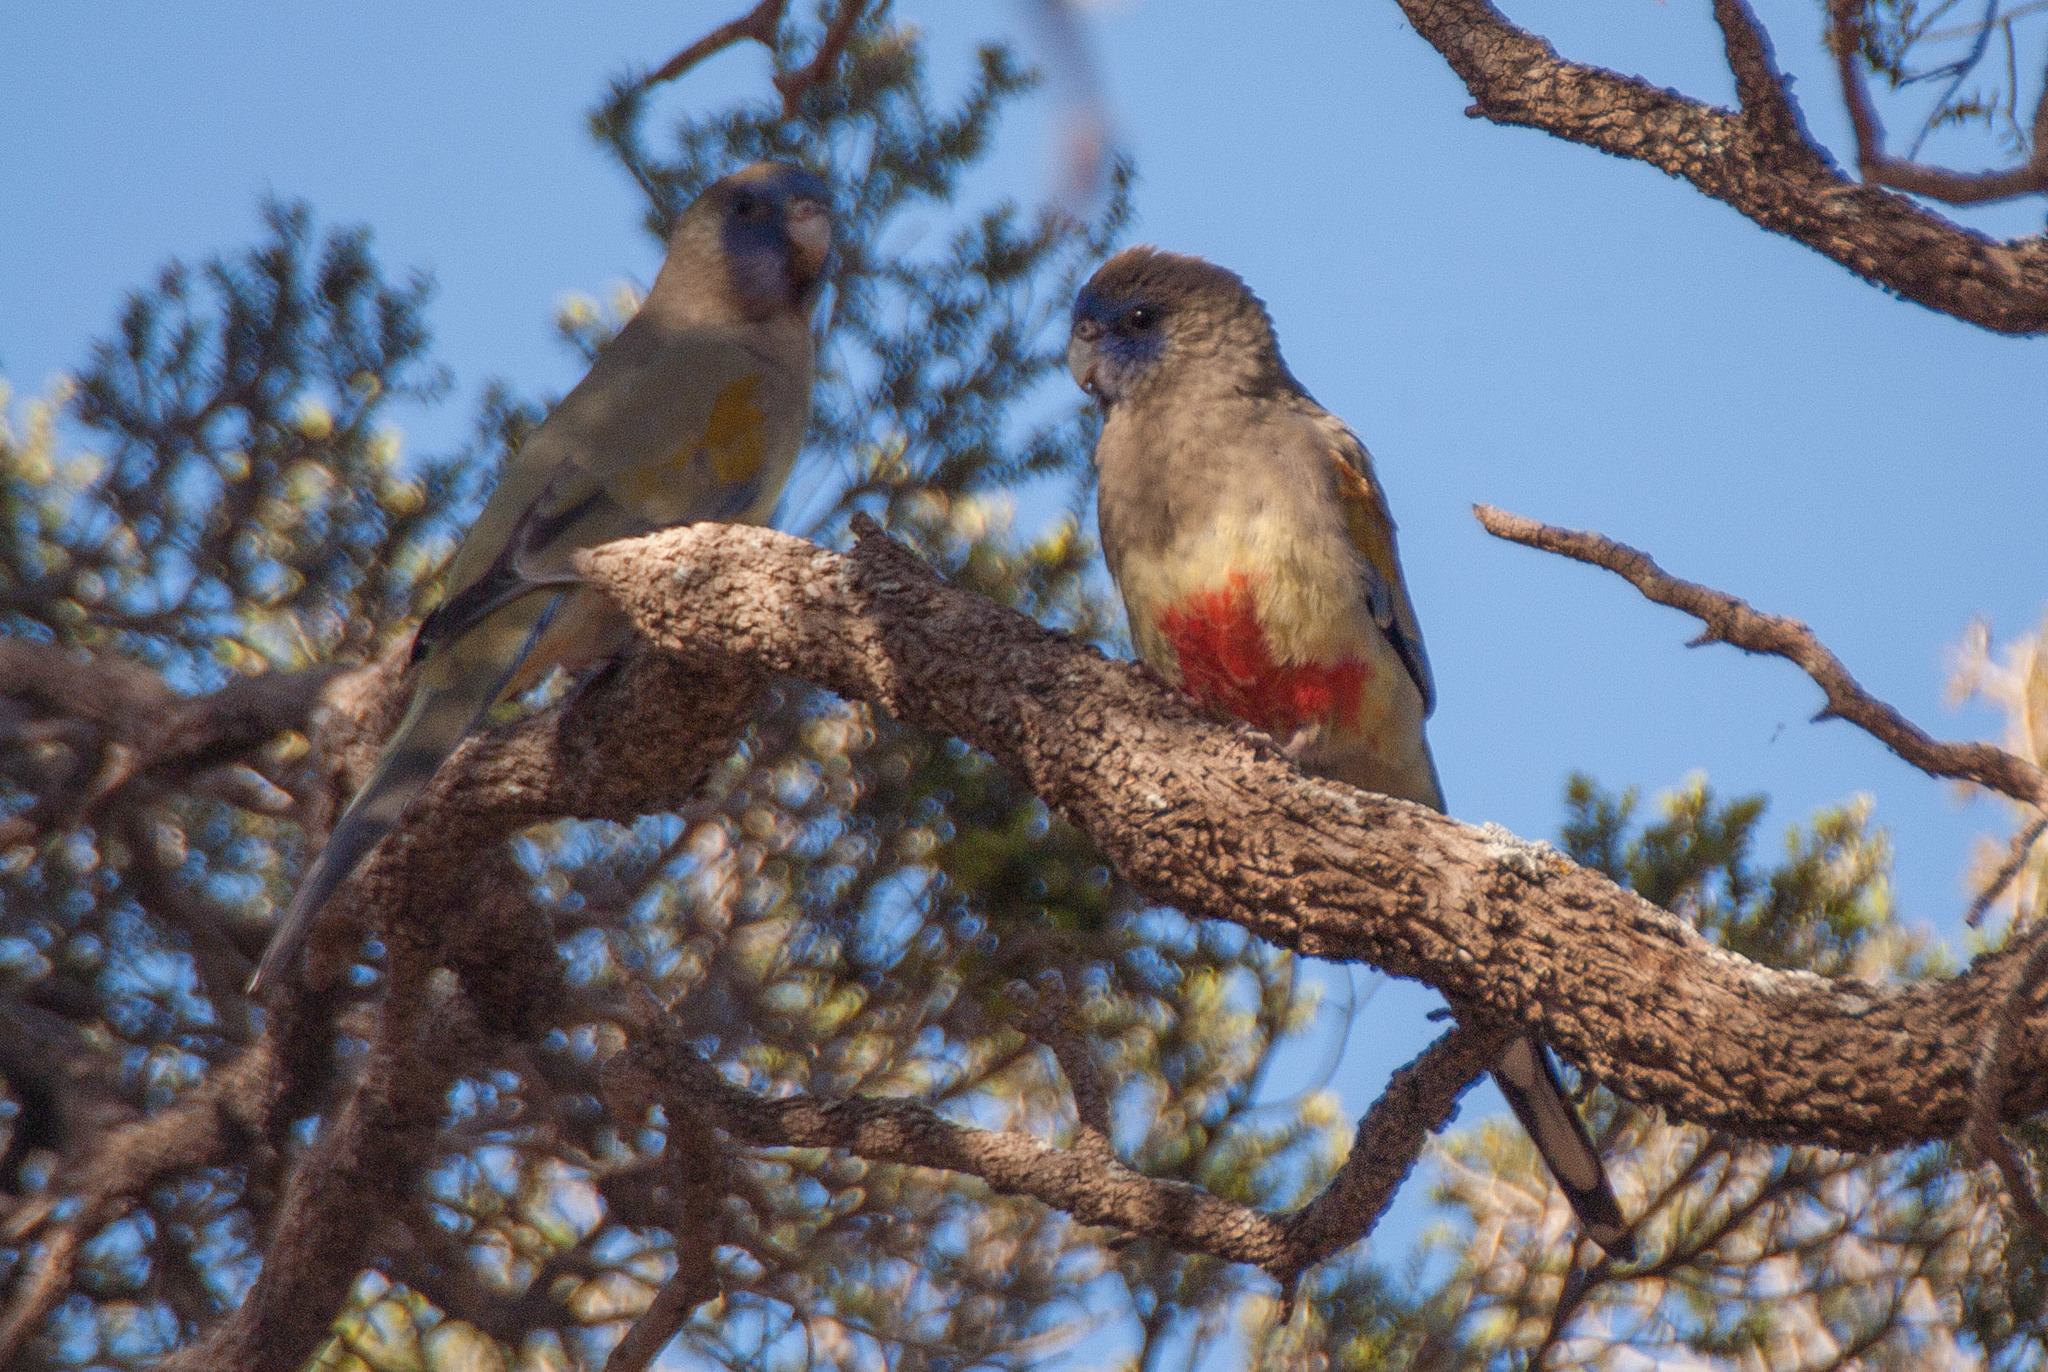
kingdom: Animalia
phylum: Chordata
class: Aves
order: Psittaciformes
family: Psittacidae
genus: Northiella
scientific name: Northiella haematogaster
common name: Bluebonnet
